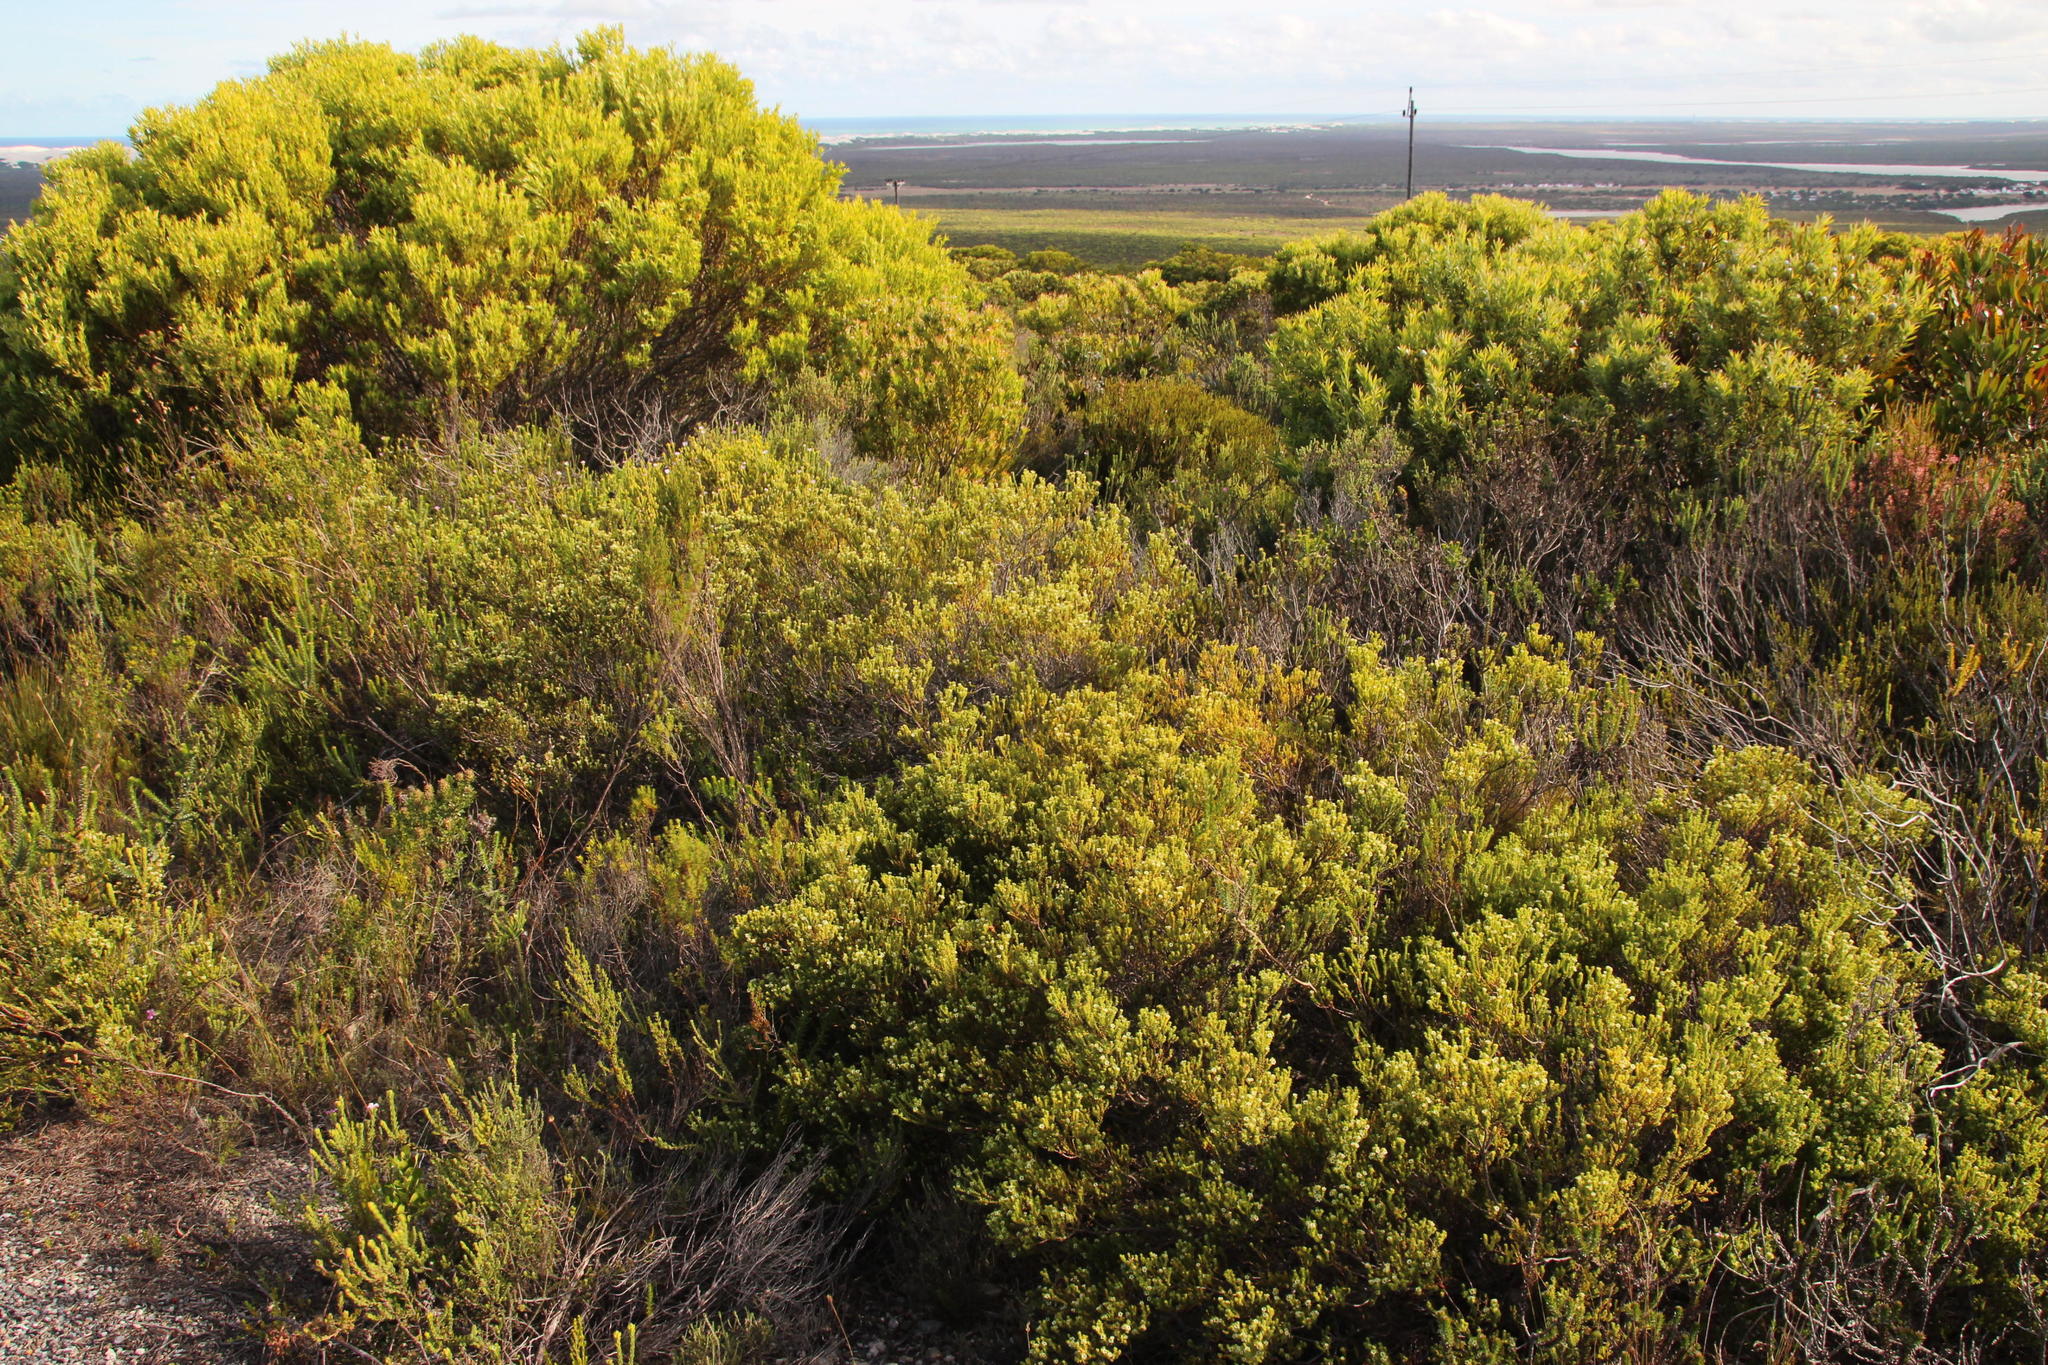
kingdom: Plantae
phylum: Tracheophyta
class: Magnoliopsida
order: Proteales
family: Proteaceae
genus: Leucadendron
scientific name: Leucadendron meridianum
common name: Limestone conebush
